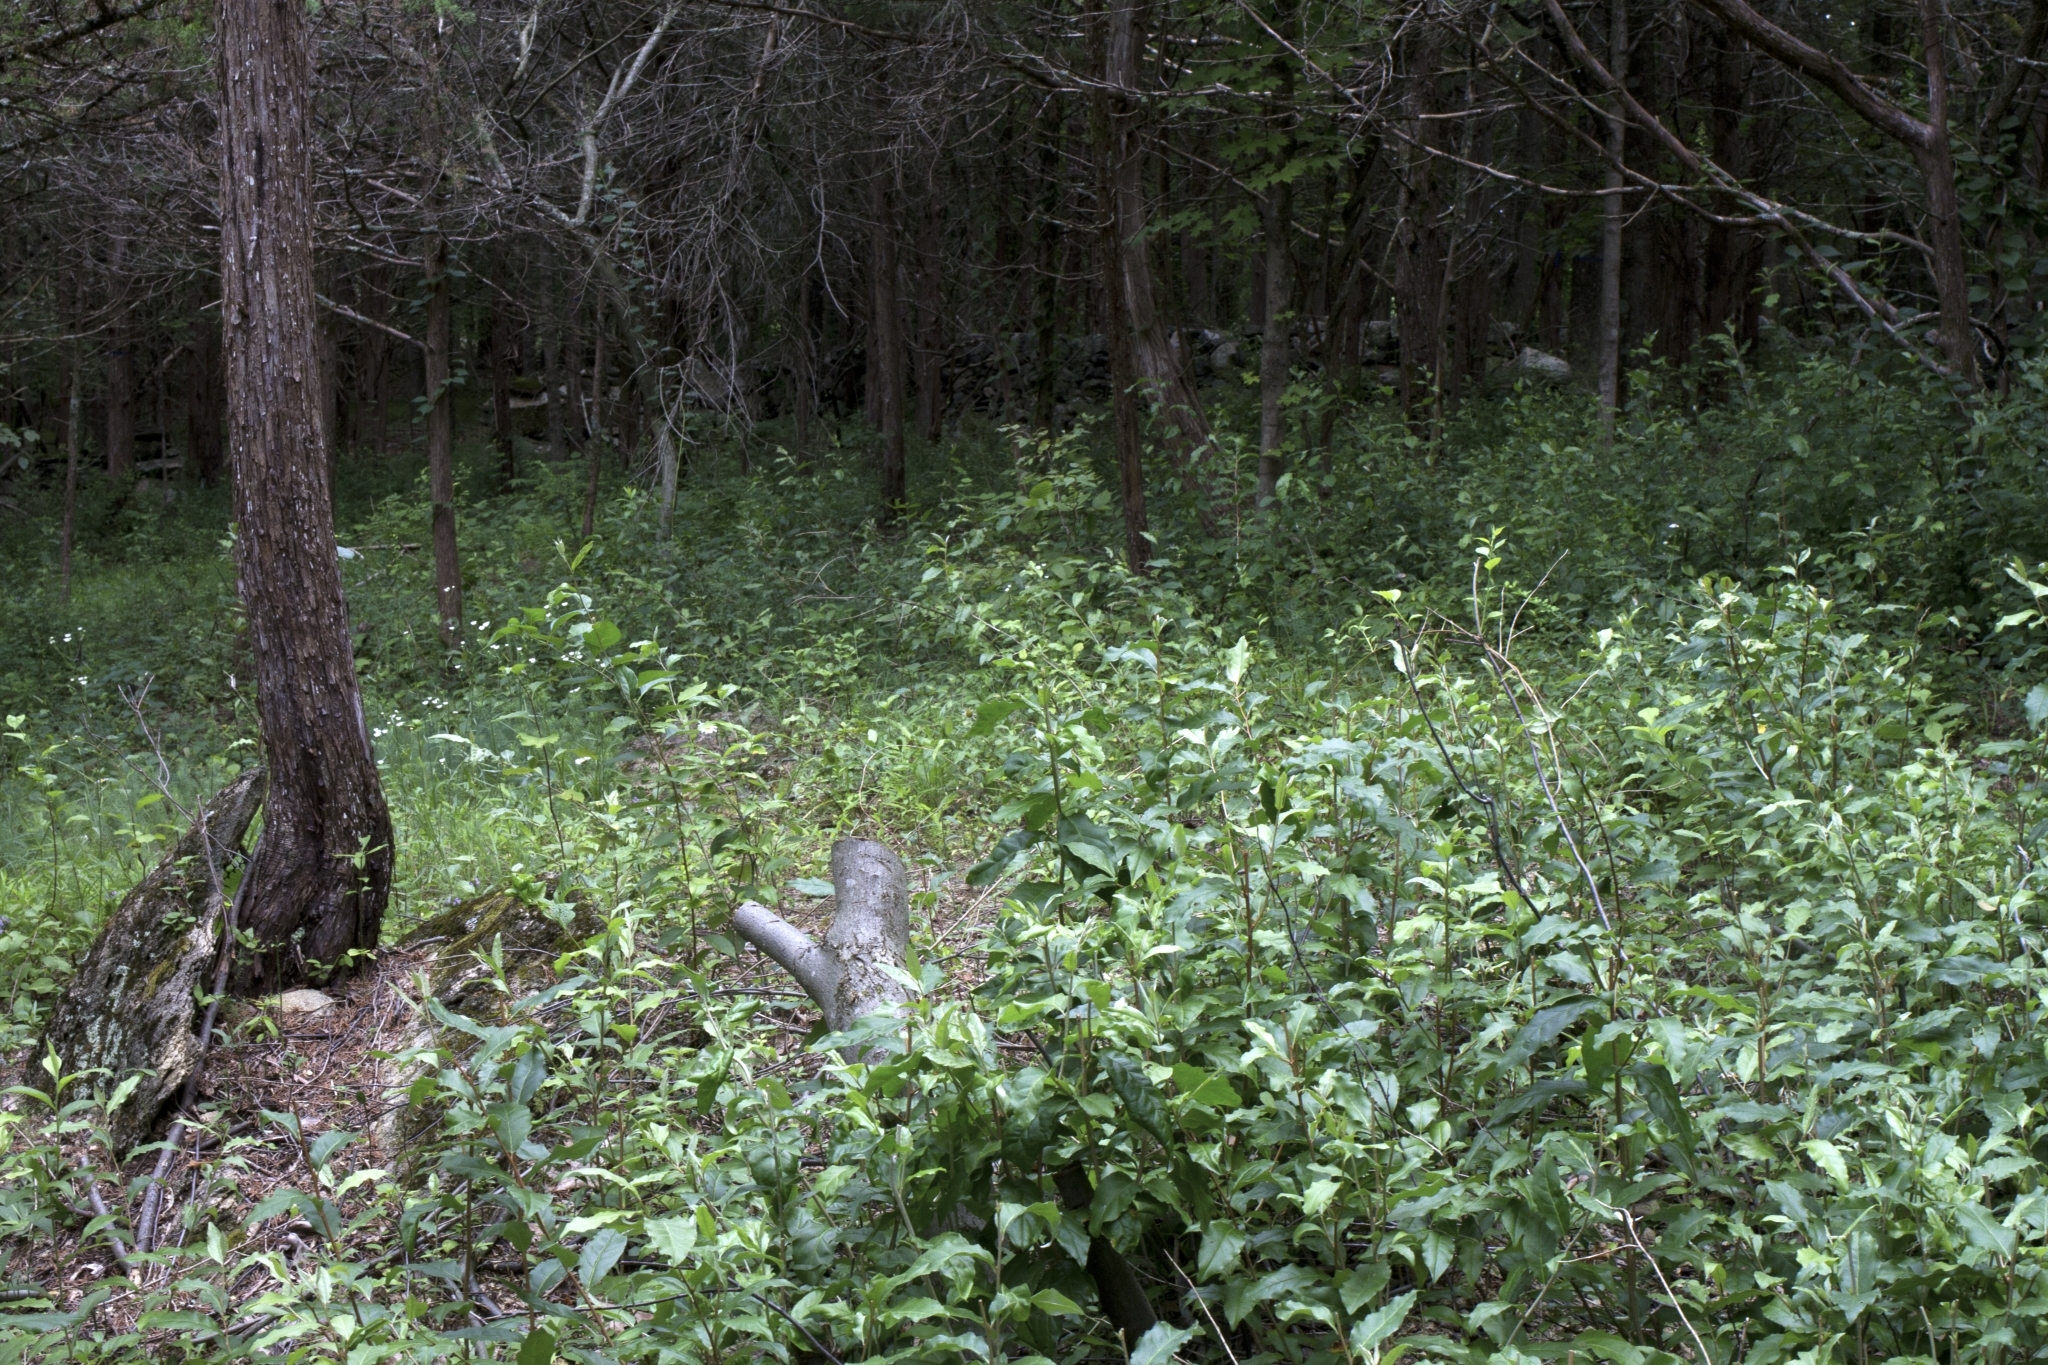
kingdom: Plantae
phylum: Tracheophyta
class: Magnoliopsida
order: Rosales
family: Elaeagnaceae
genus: Elaeagnus
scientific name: Elaeagnus umbellata
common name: Autumn olive
